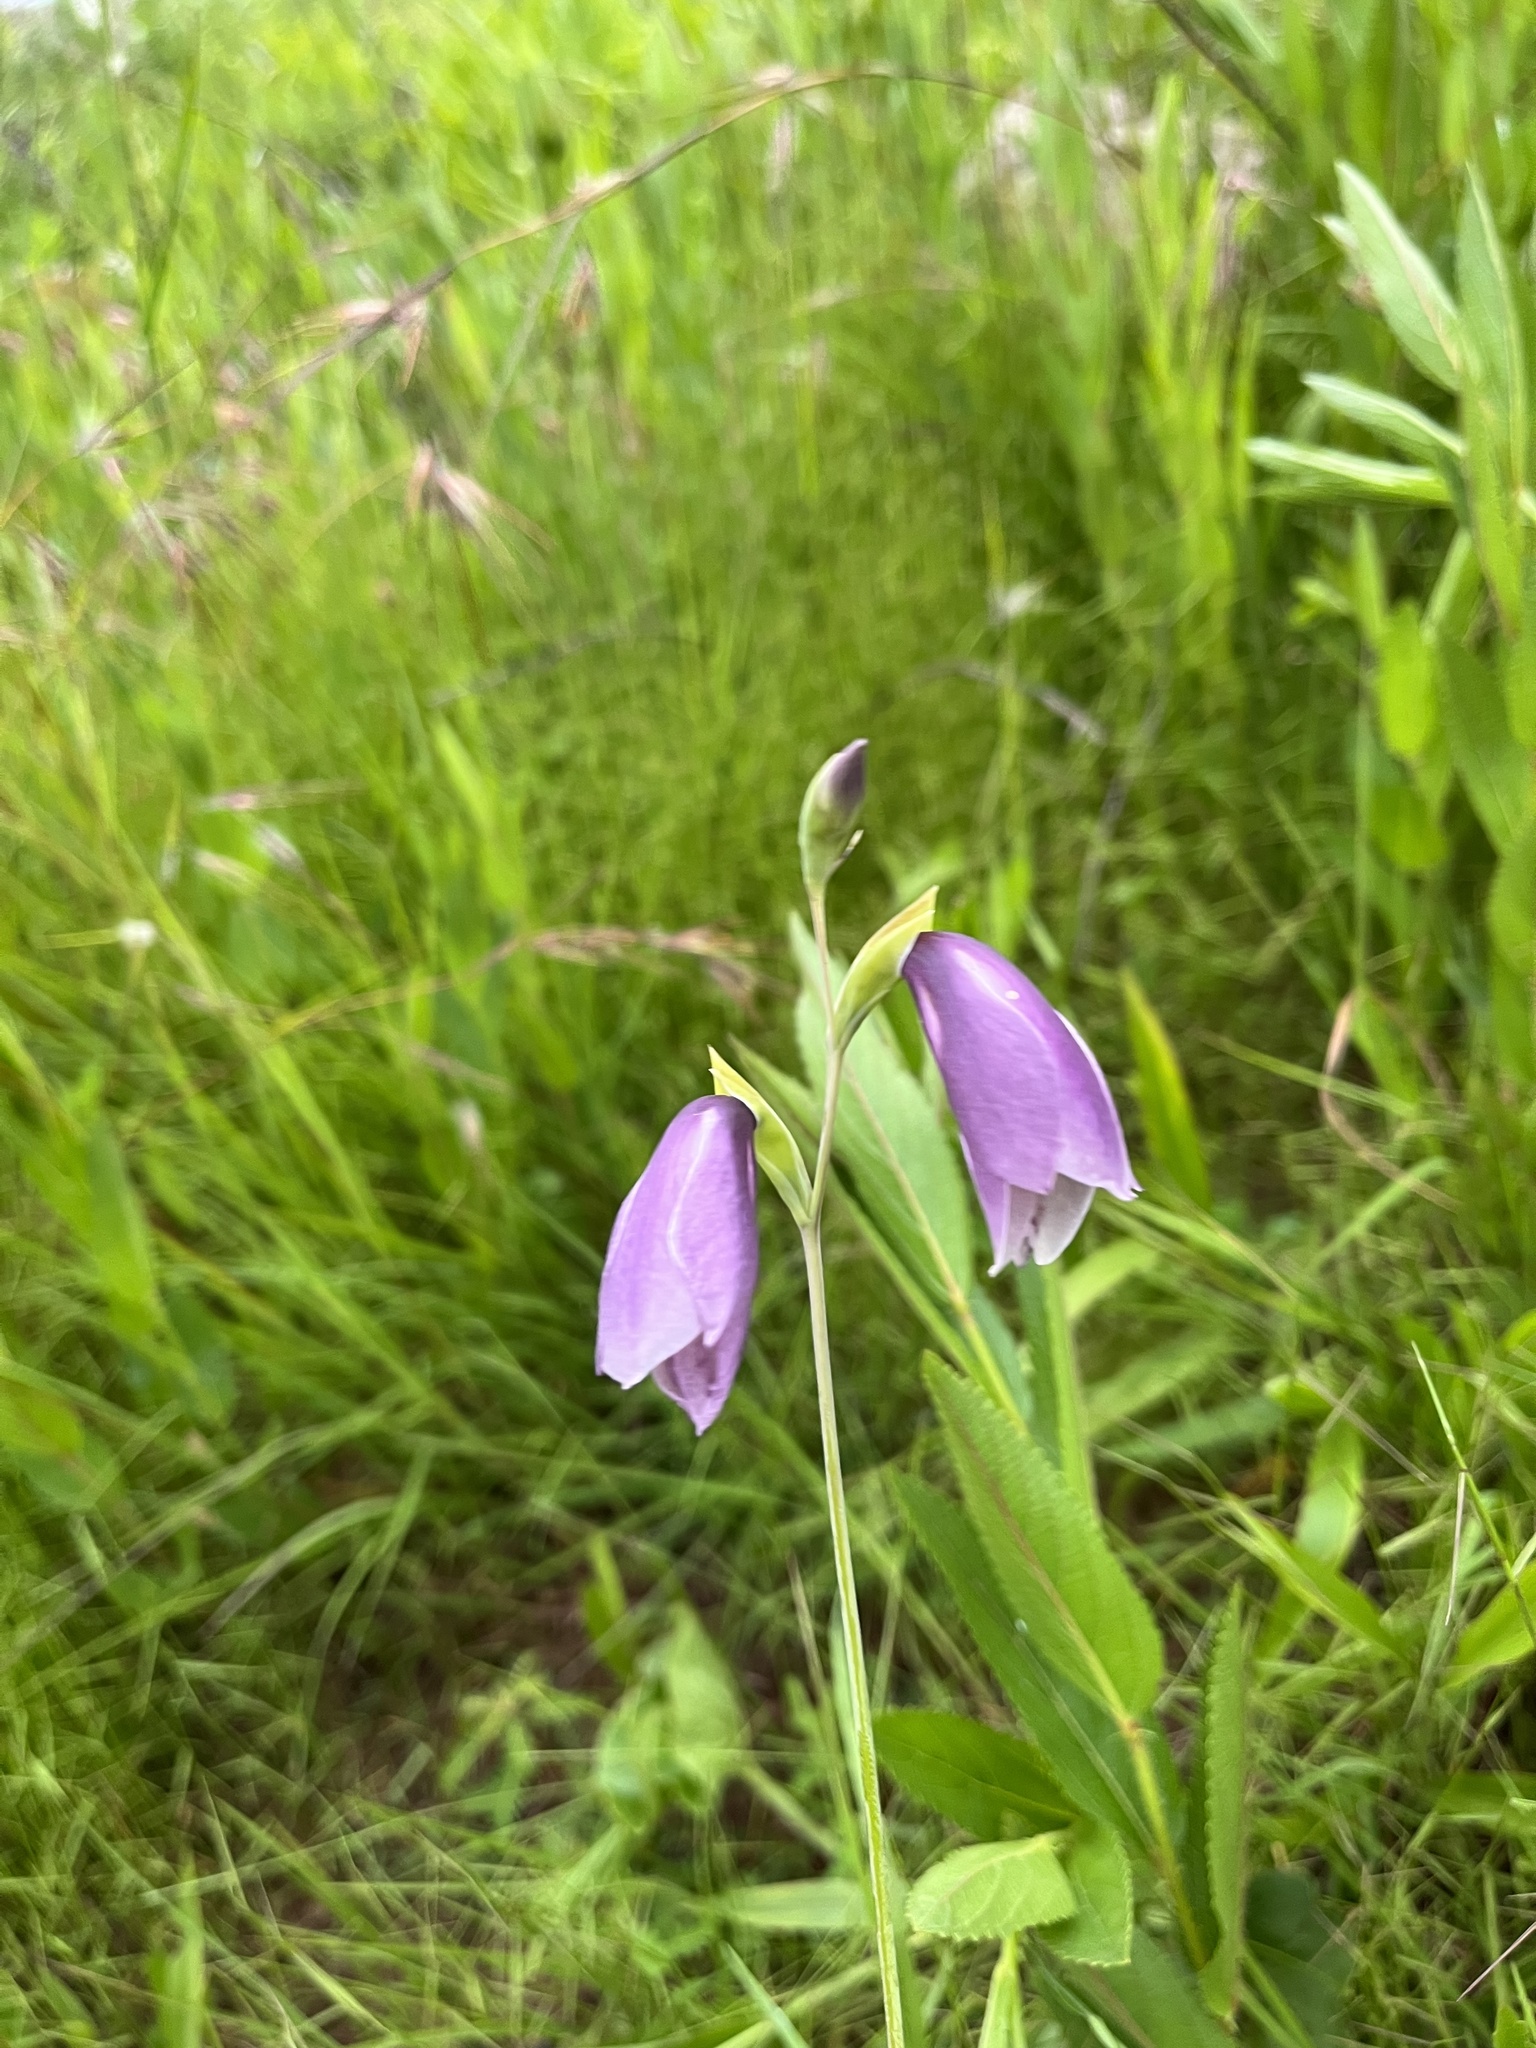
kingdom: Plantae
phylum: Tracheophyta
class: Liliopsida
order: Asparagales
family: Iridaceae
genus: Gladiolus
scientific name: Gladiolus papilio
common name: Goldblotch gladiolus
